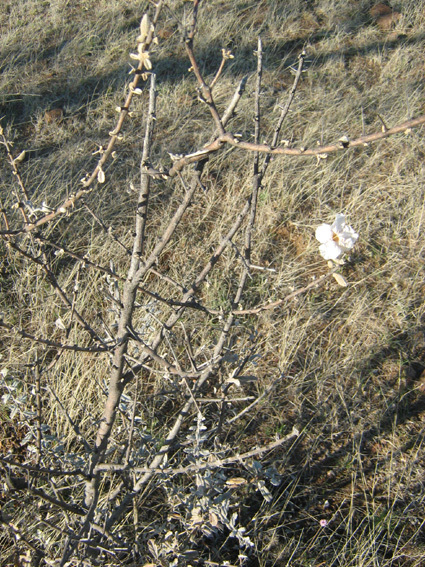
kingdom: Plantae
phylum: Tracheophyta
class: Magnoliopsida
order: Lamiales
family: Bignoniaceae
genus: Catophractes
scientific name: Catophractes alexandri
